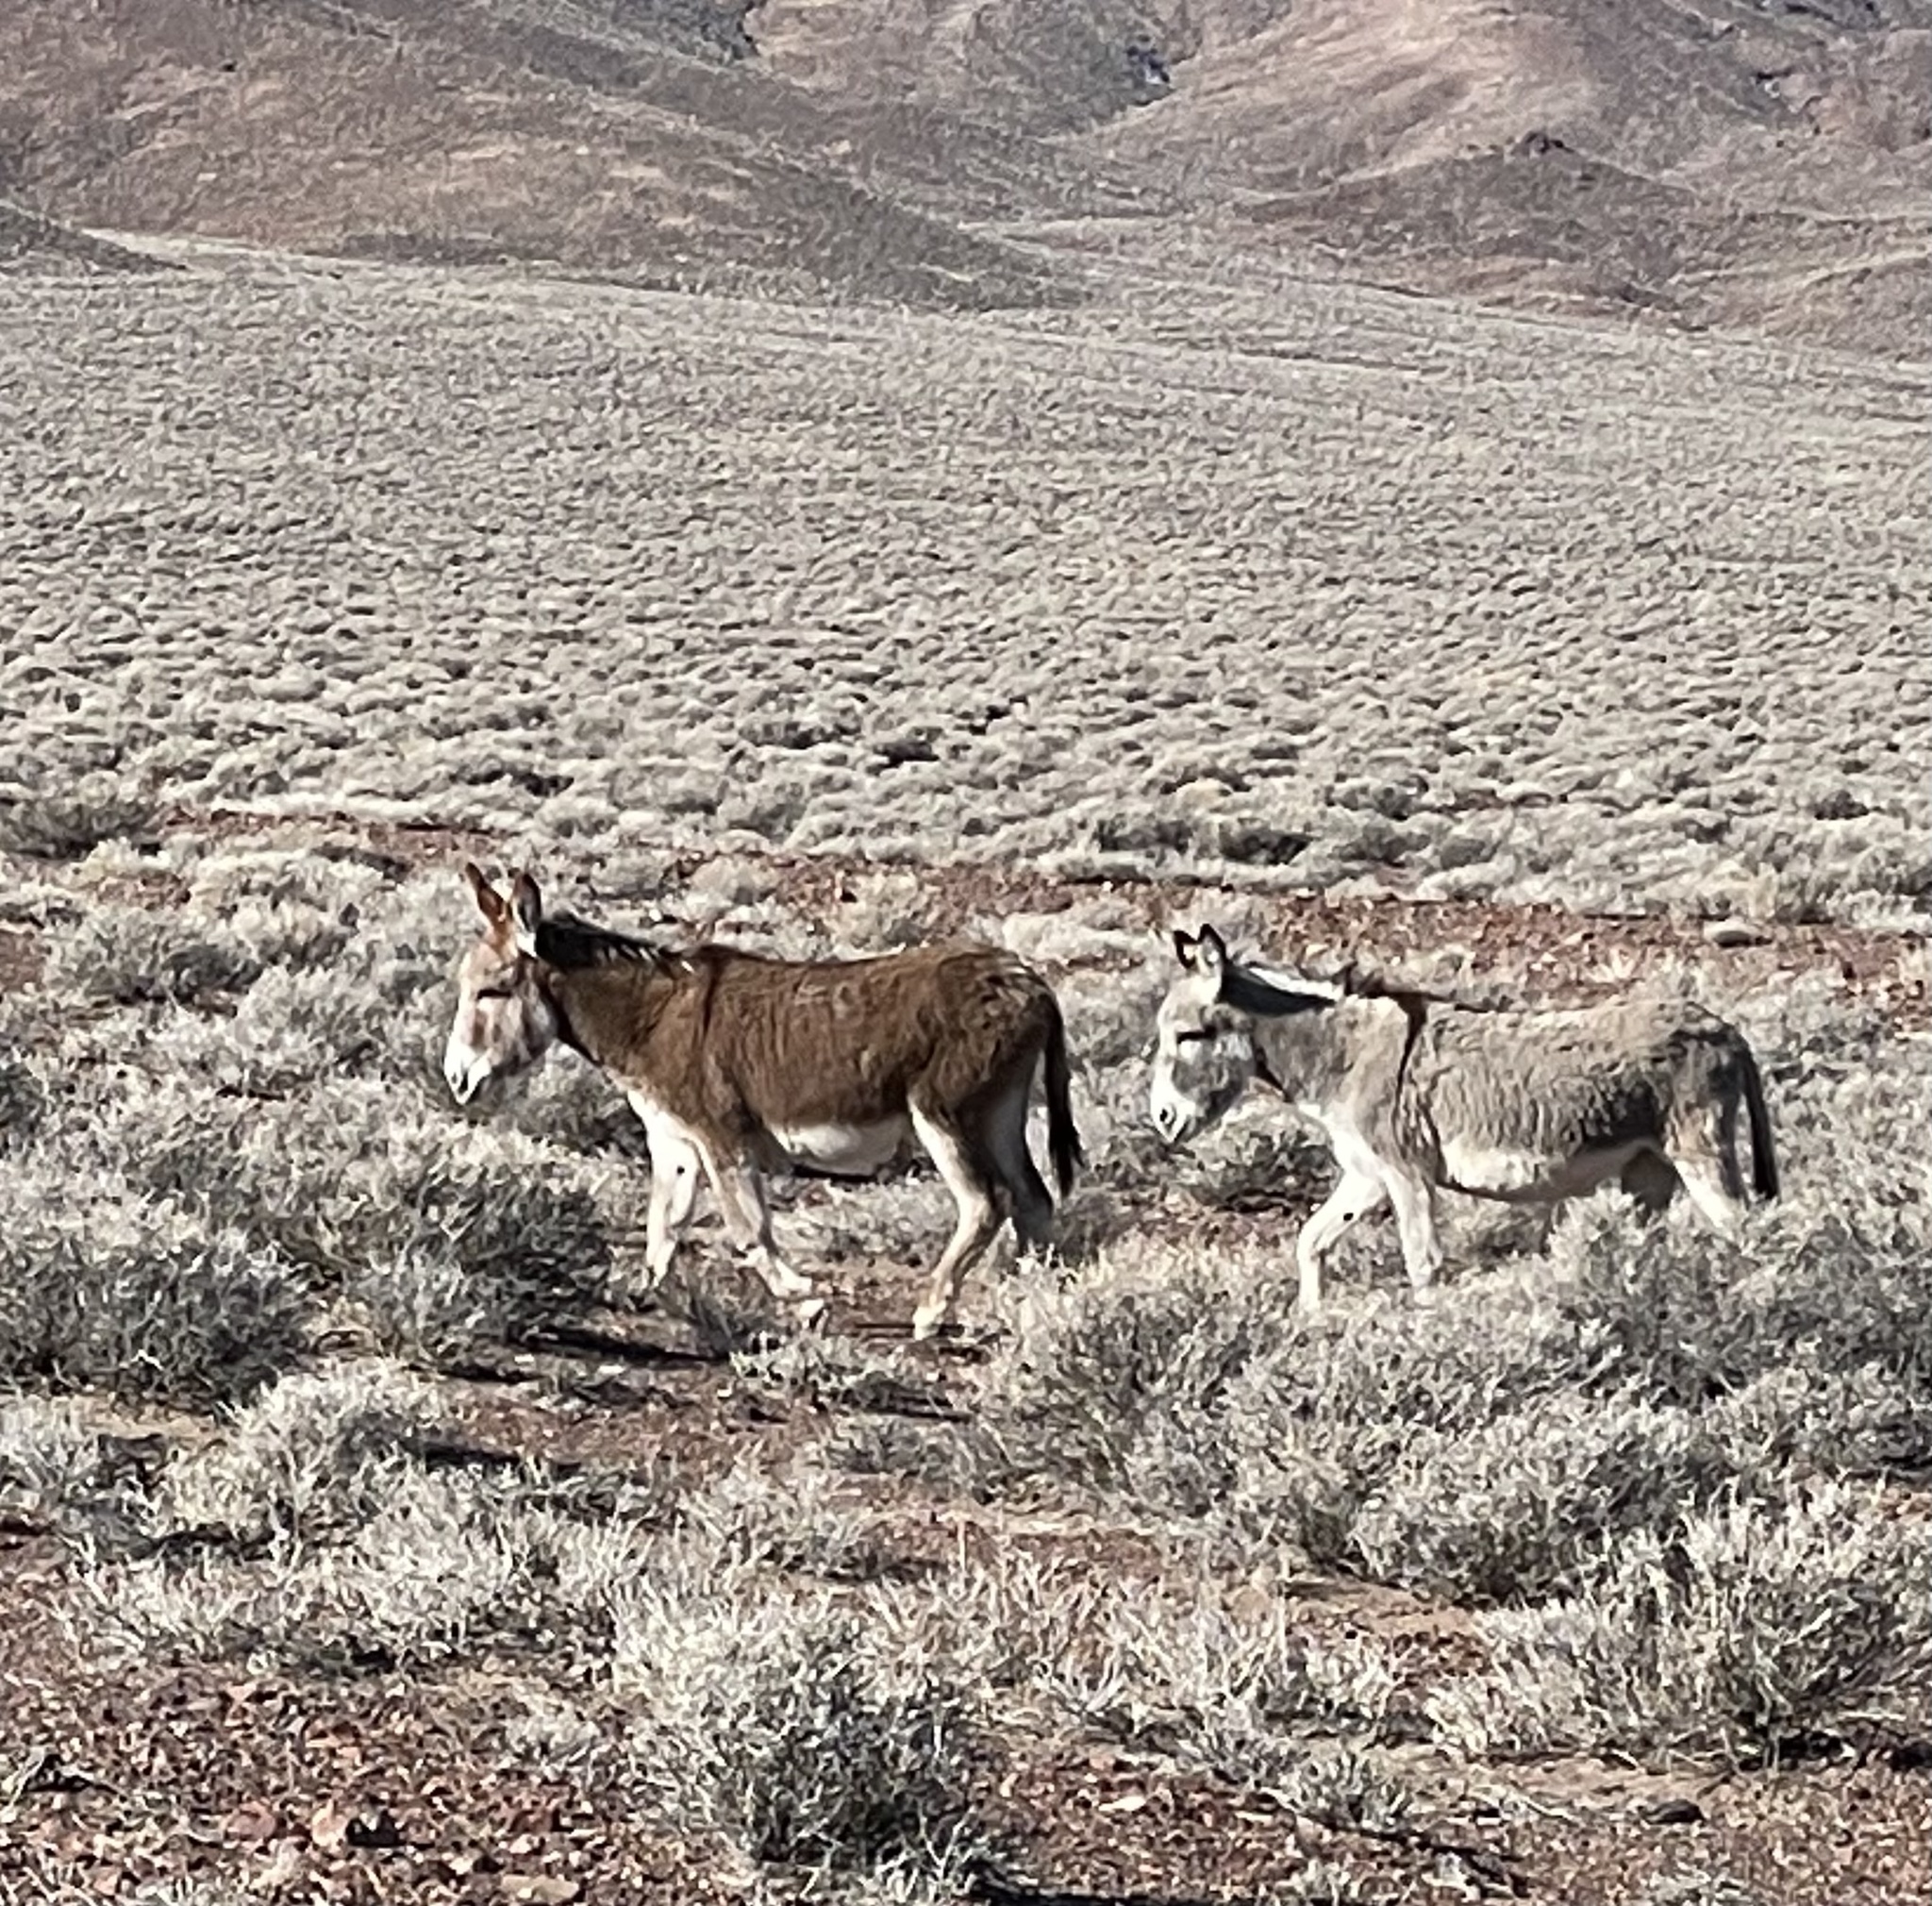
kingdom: Animalia
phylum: Chordata
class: Mammalia
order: Perissodactyla
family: Equidae
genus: Equus
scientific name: Equus asinus
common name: Ass
